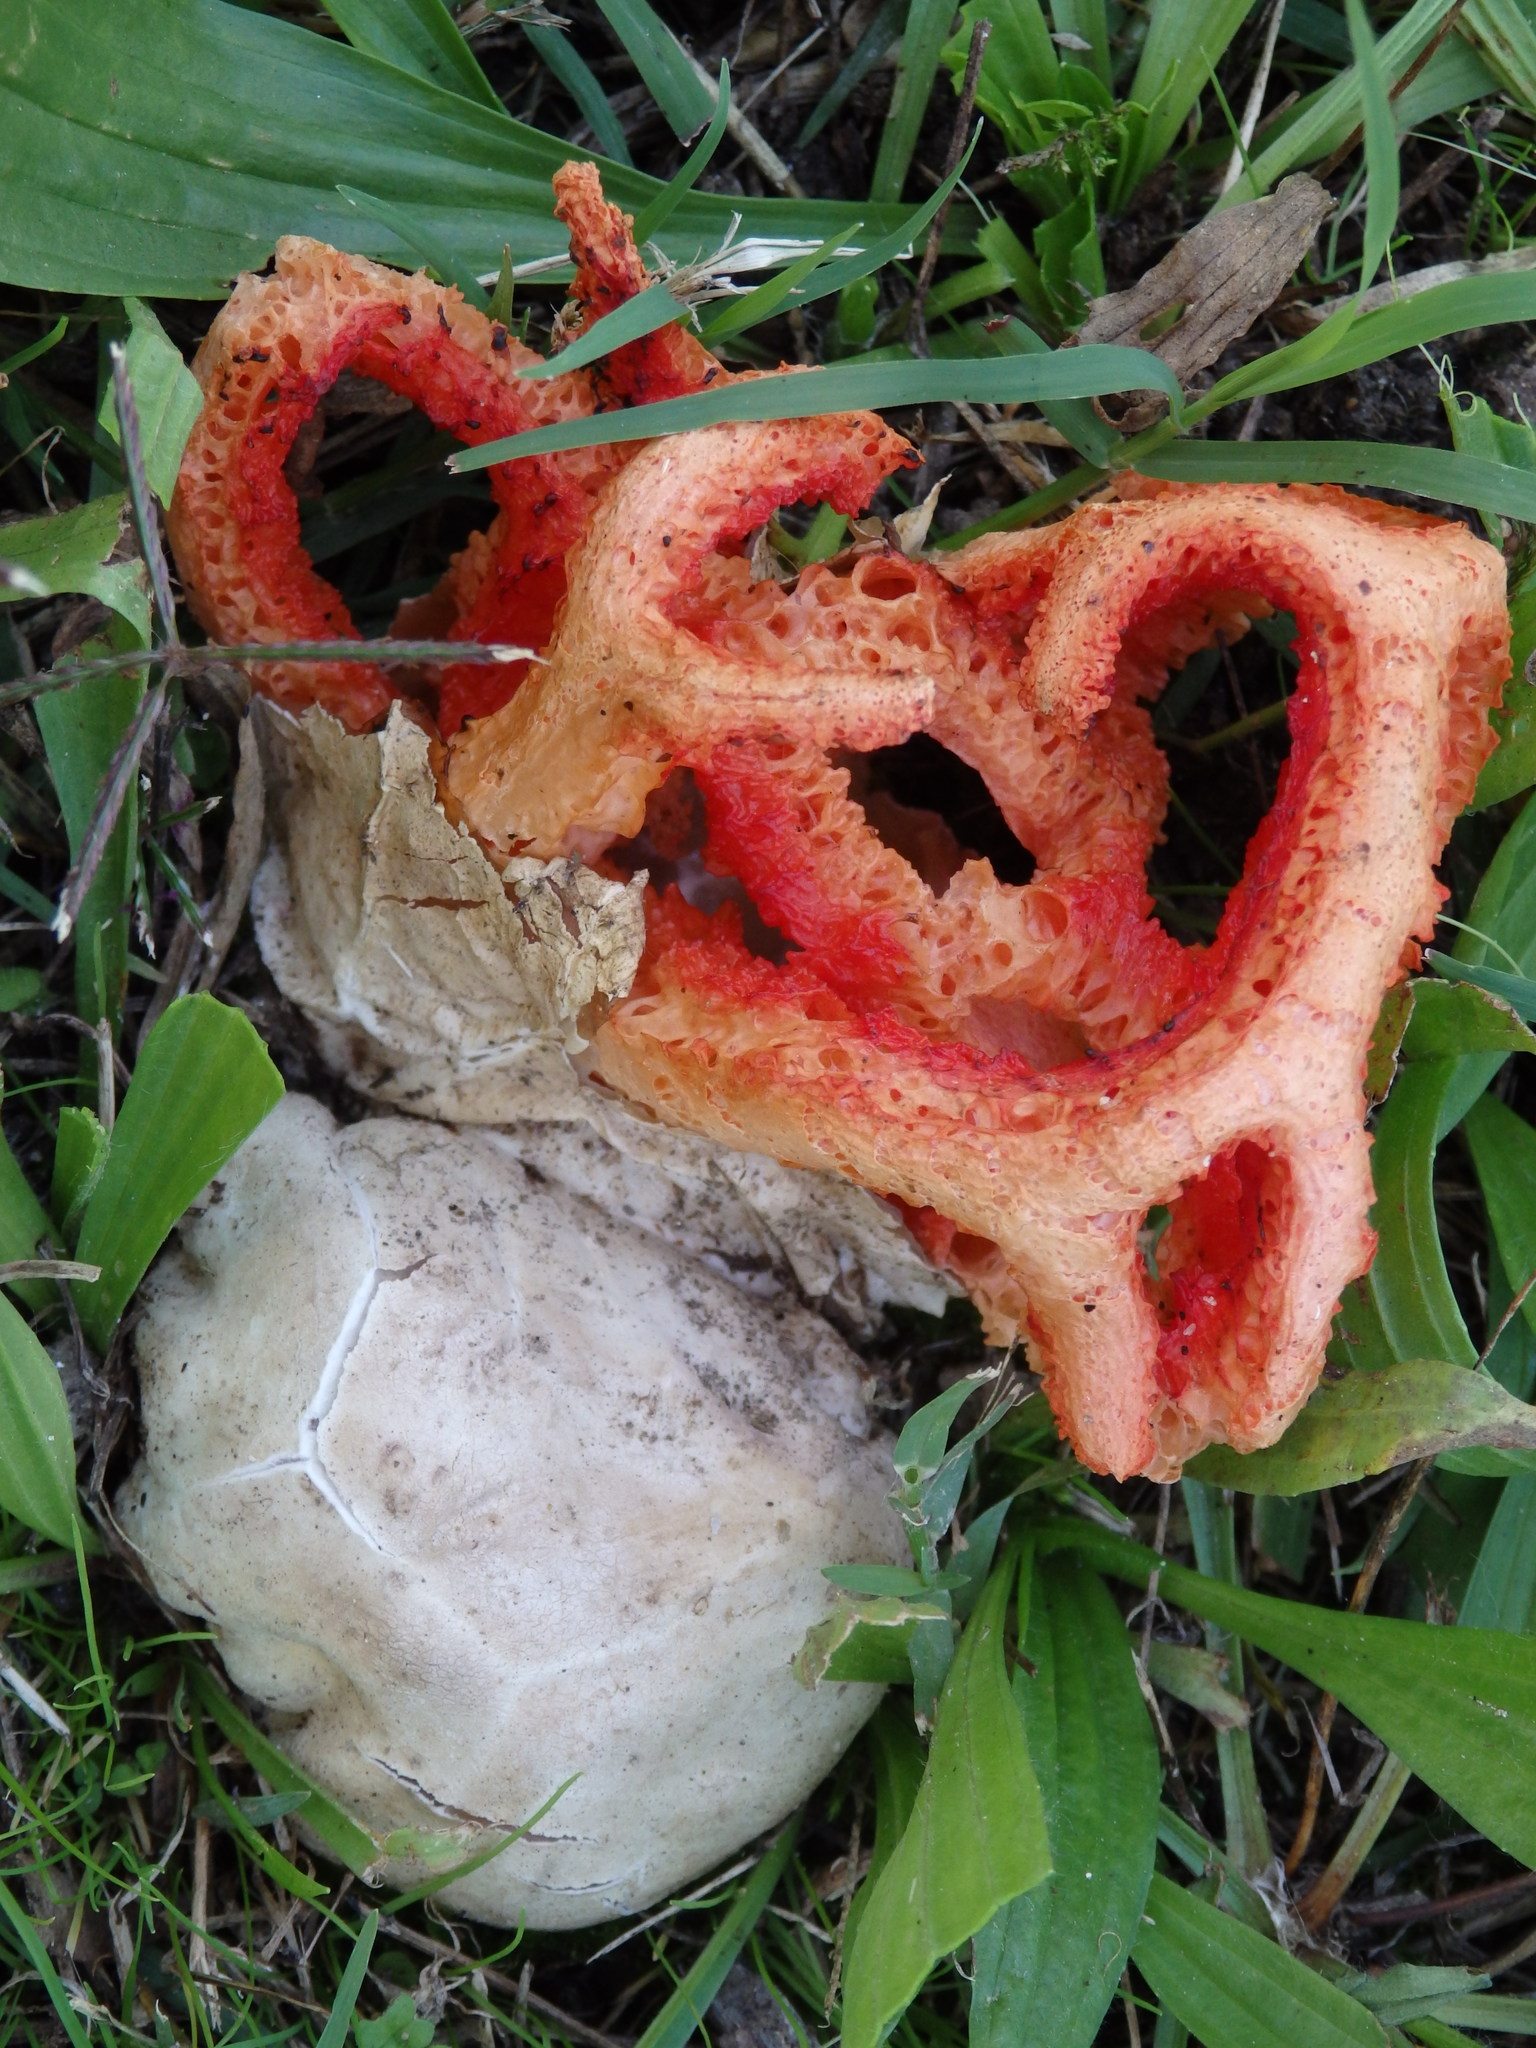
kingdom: Fungi
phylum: Basidiomycota
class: Agaricomycetes
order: Phallales
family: Phallaceae
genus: Clathrus
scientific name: Clathrus ruber
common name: Red cage
